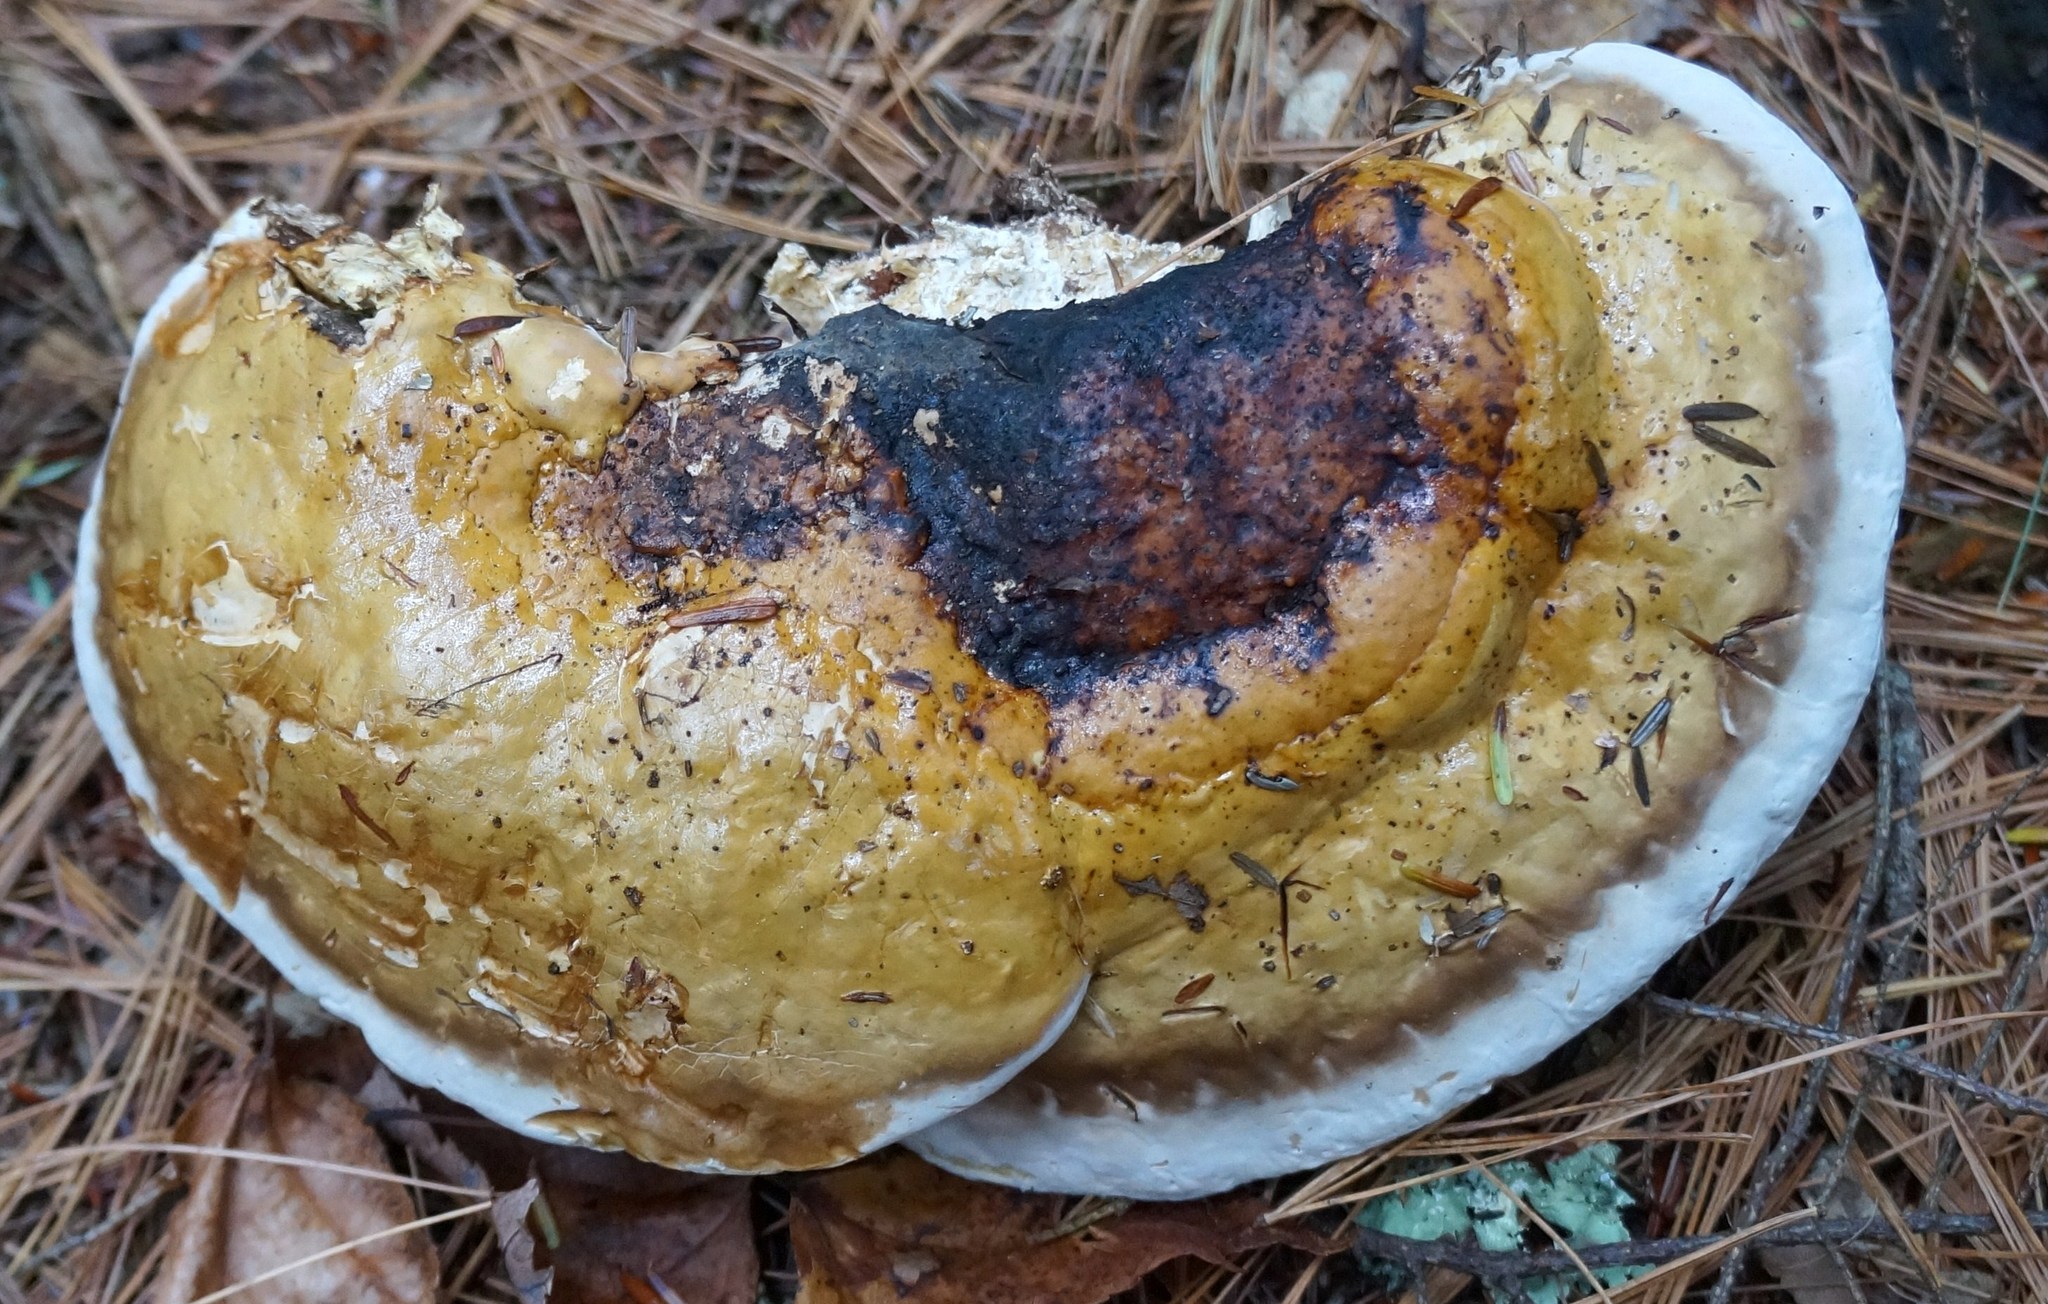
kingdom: Fungi
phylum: Basidiomycota
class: Agaricomycetes
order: Polyporales
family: Fomitopsidaceae
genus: Fomitopsis
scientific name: Fomitopsis mounceae
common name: Northern red belt
